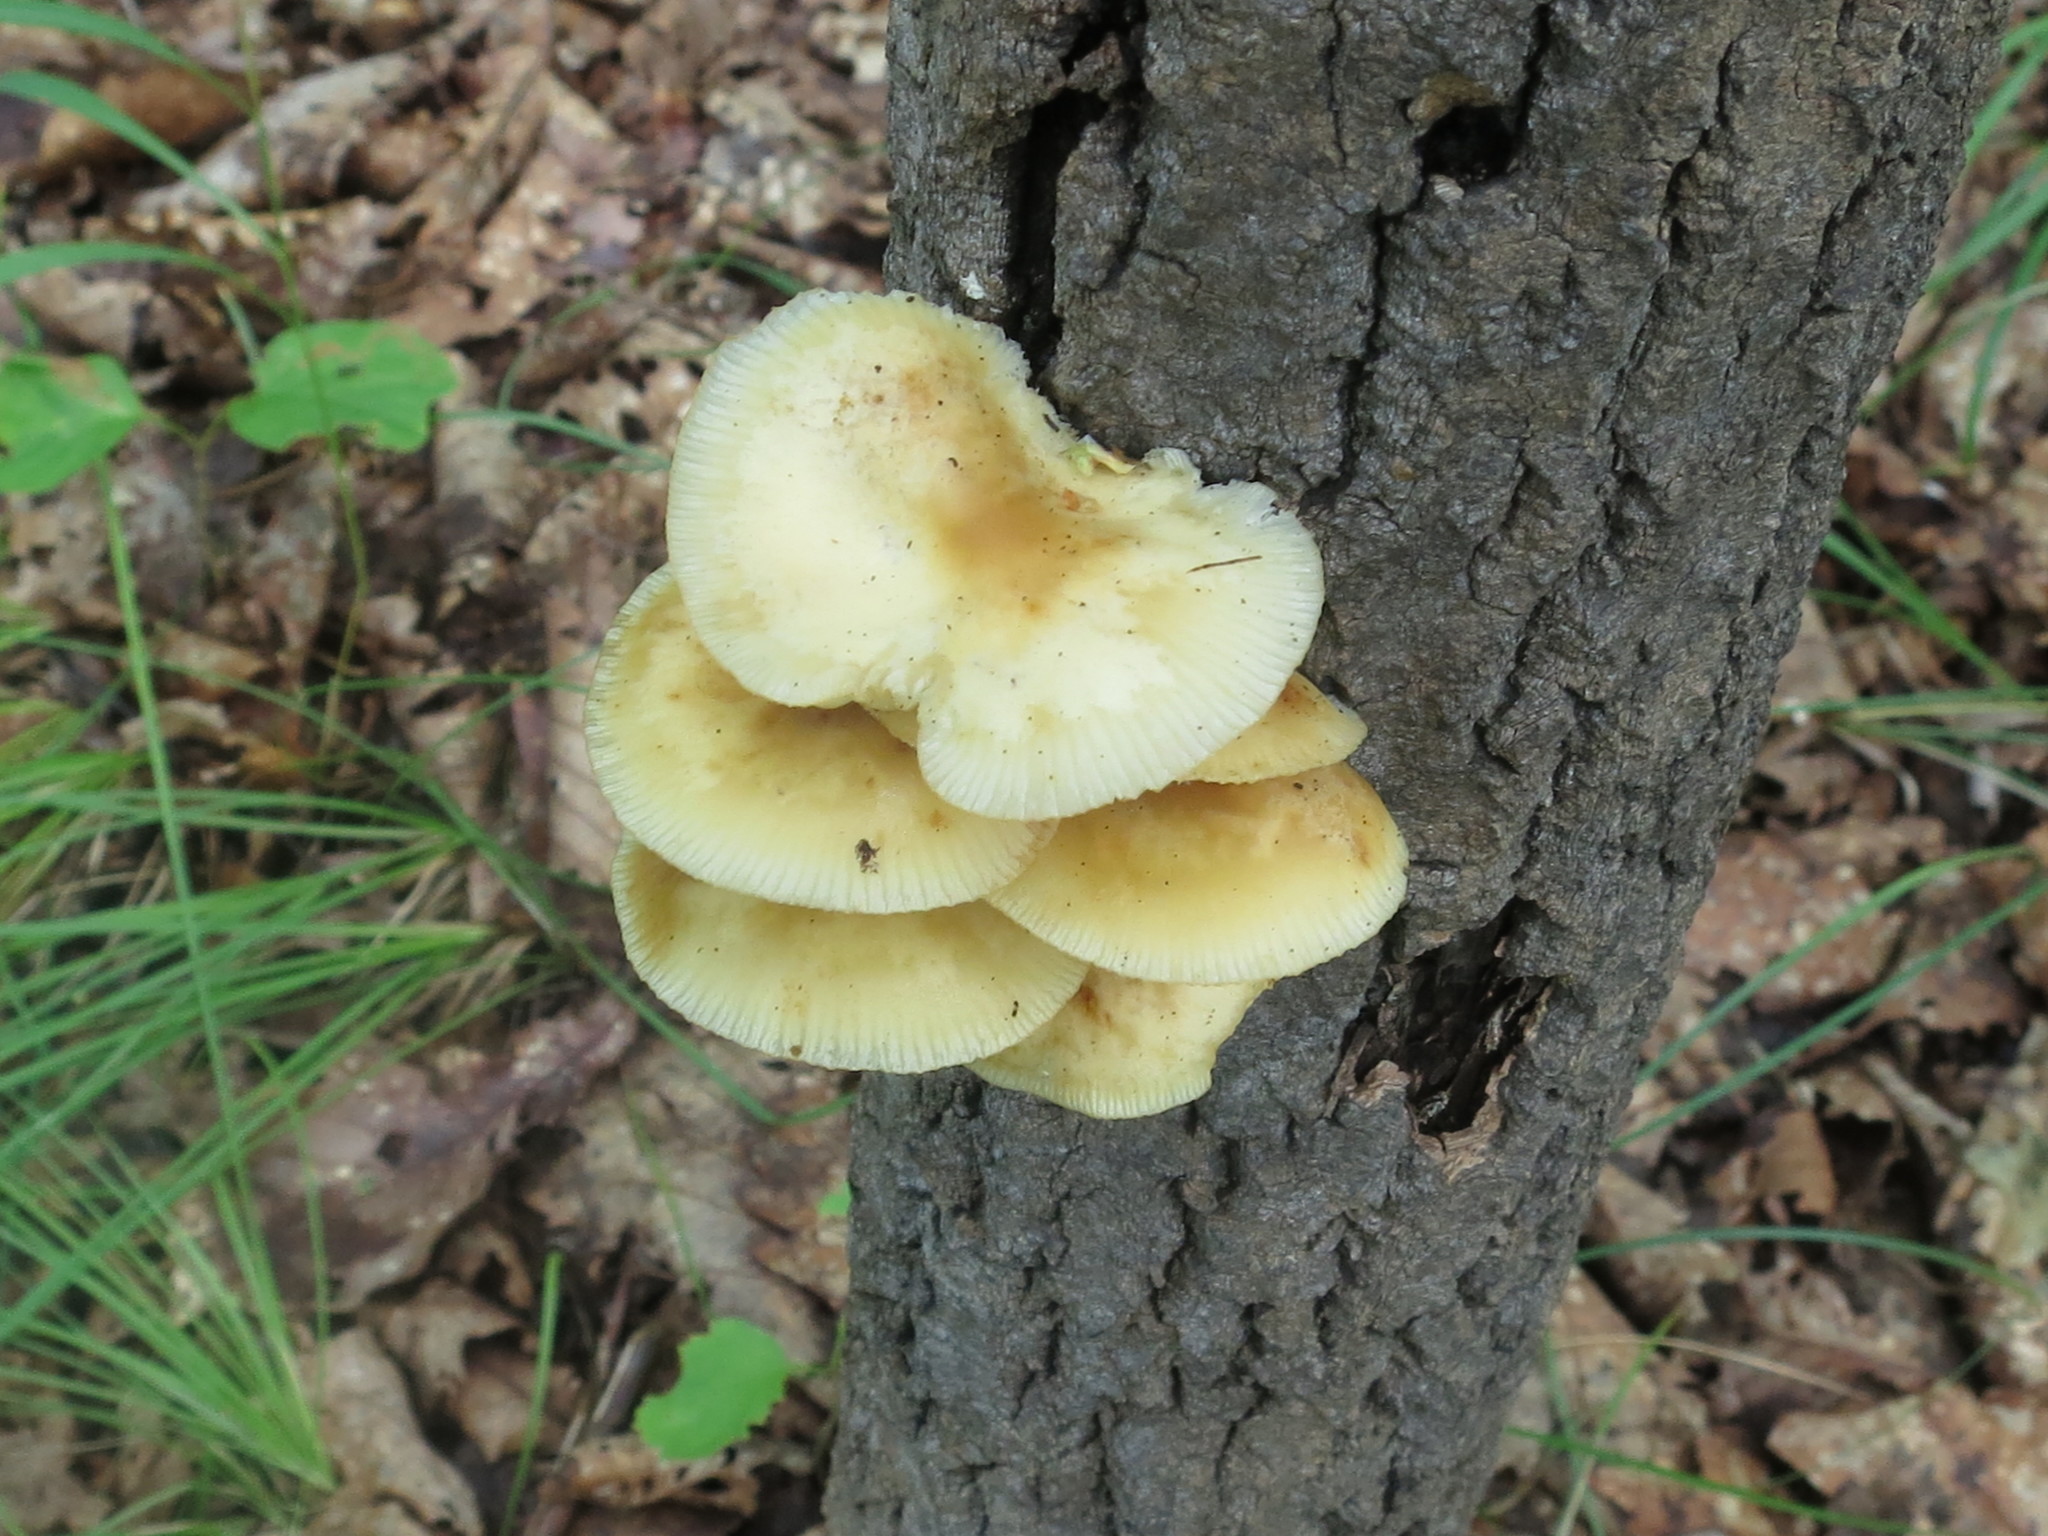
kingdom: Fungi
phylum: Basidiomycota
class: Agaricomycetes
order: Agaricales
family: Physalacriaceae
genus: Flammulina
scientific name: Flammulina velutipes
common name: Velvet shank
